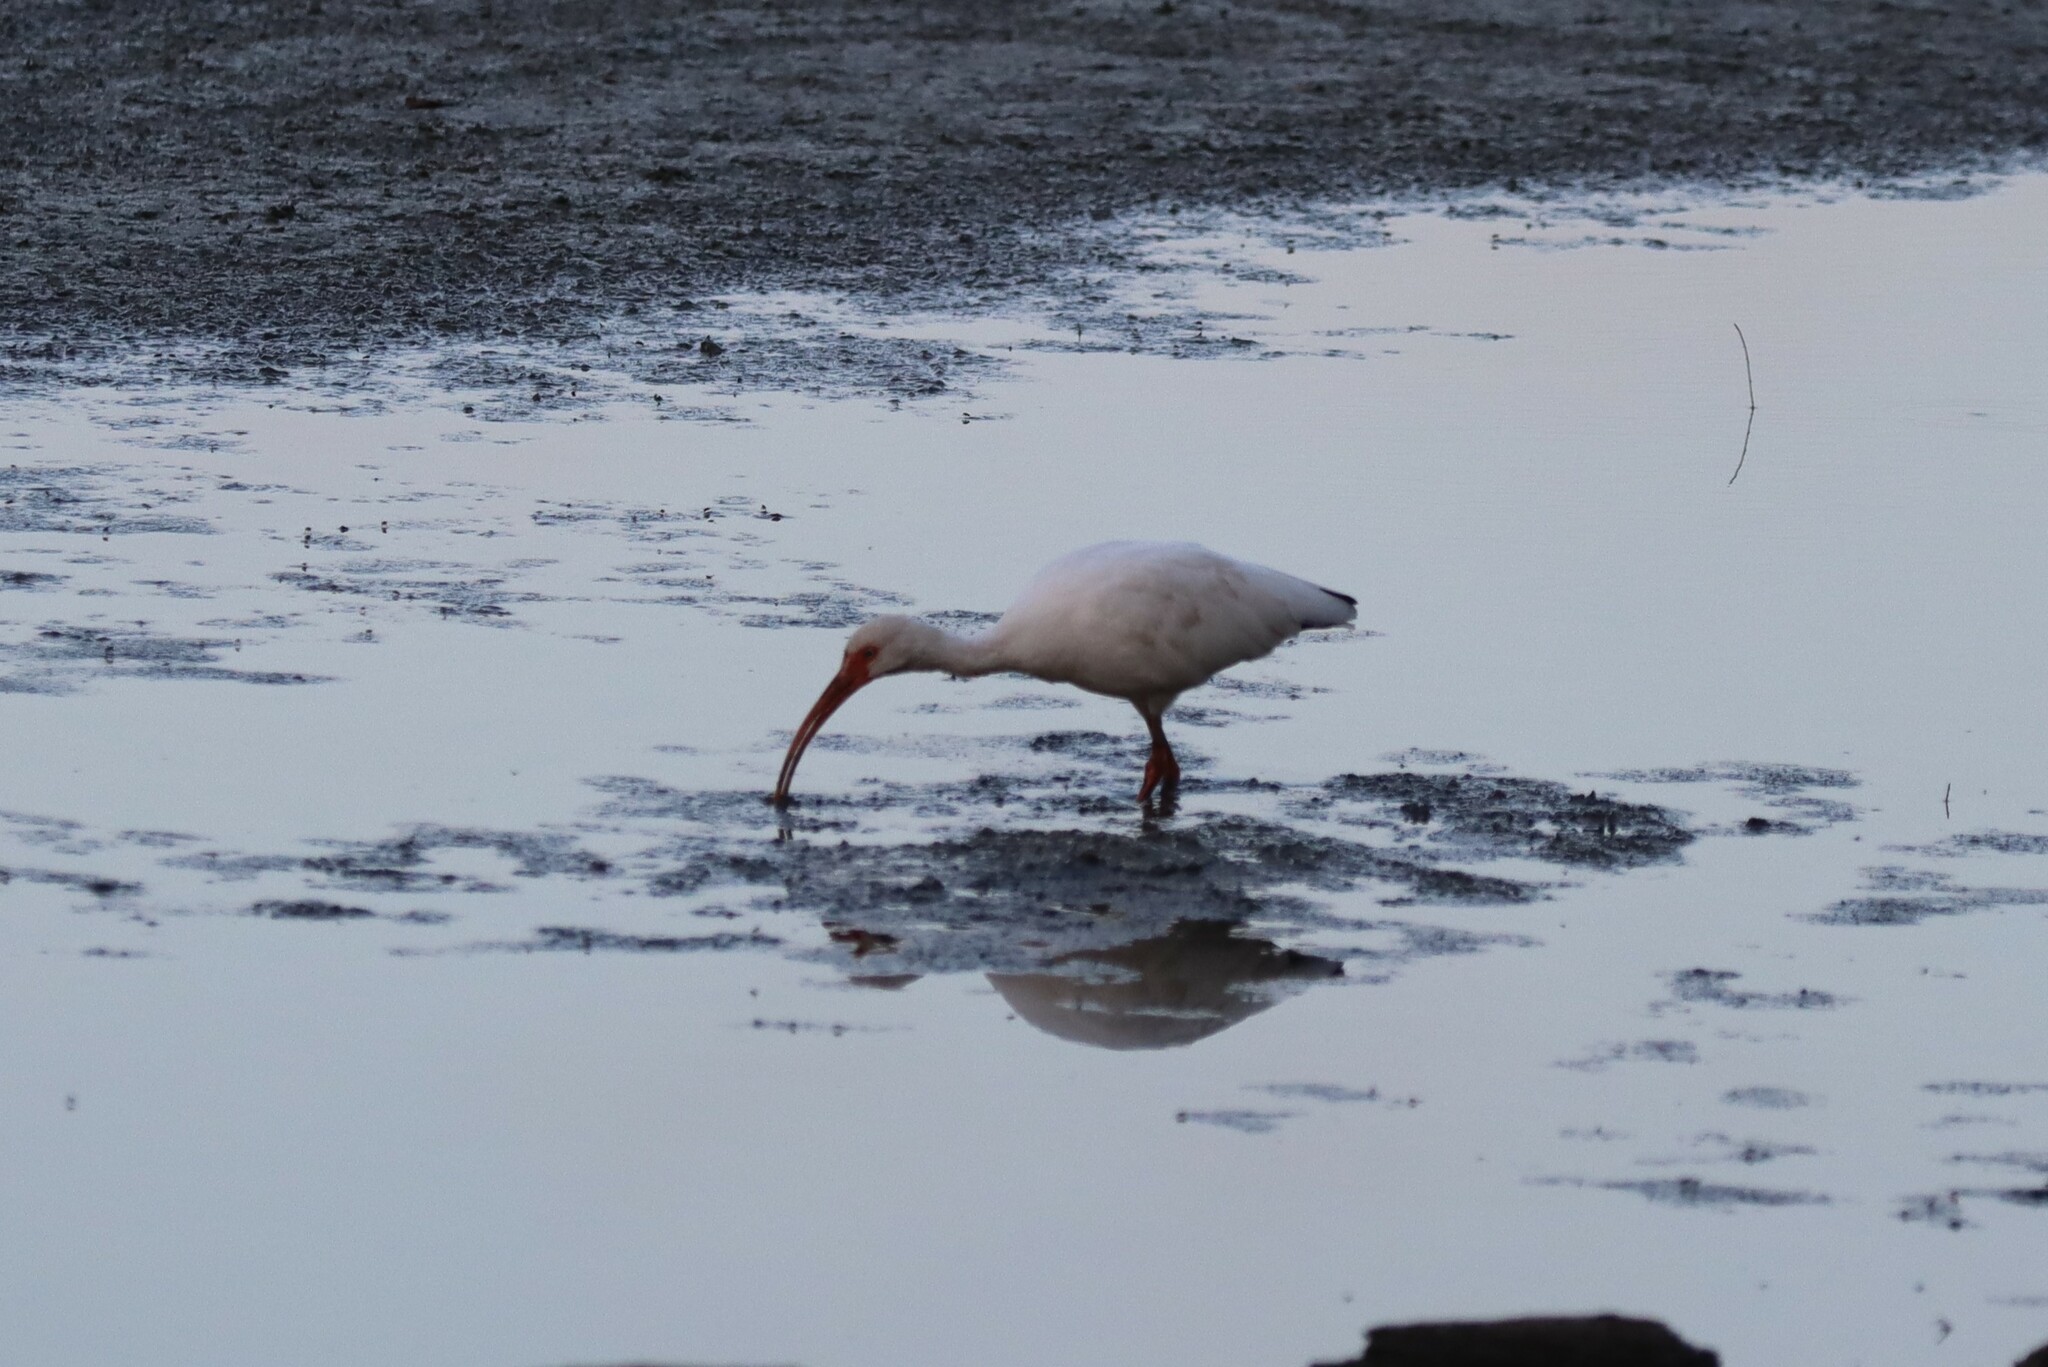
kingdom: Animalia
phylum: Chordata
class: Aves
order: Pelecaniformes
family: Threskiornithidae
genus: Eudocimus
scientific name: Eudocimus albus
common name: White ibis
